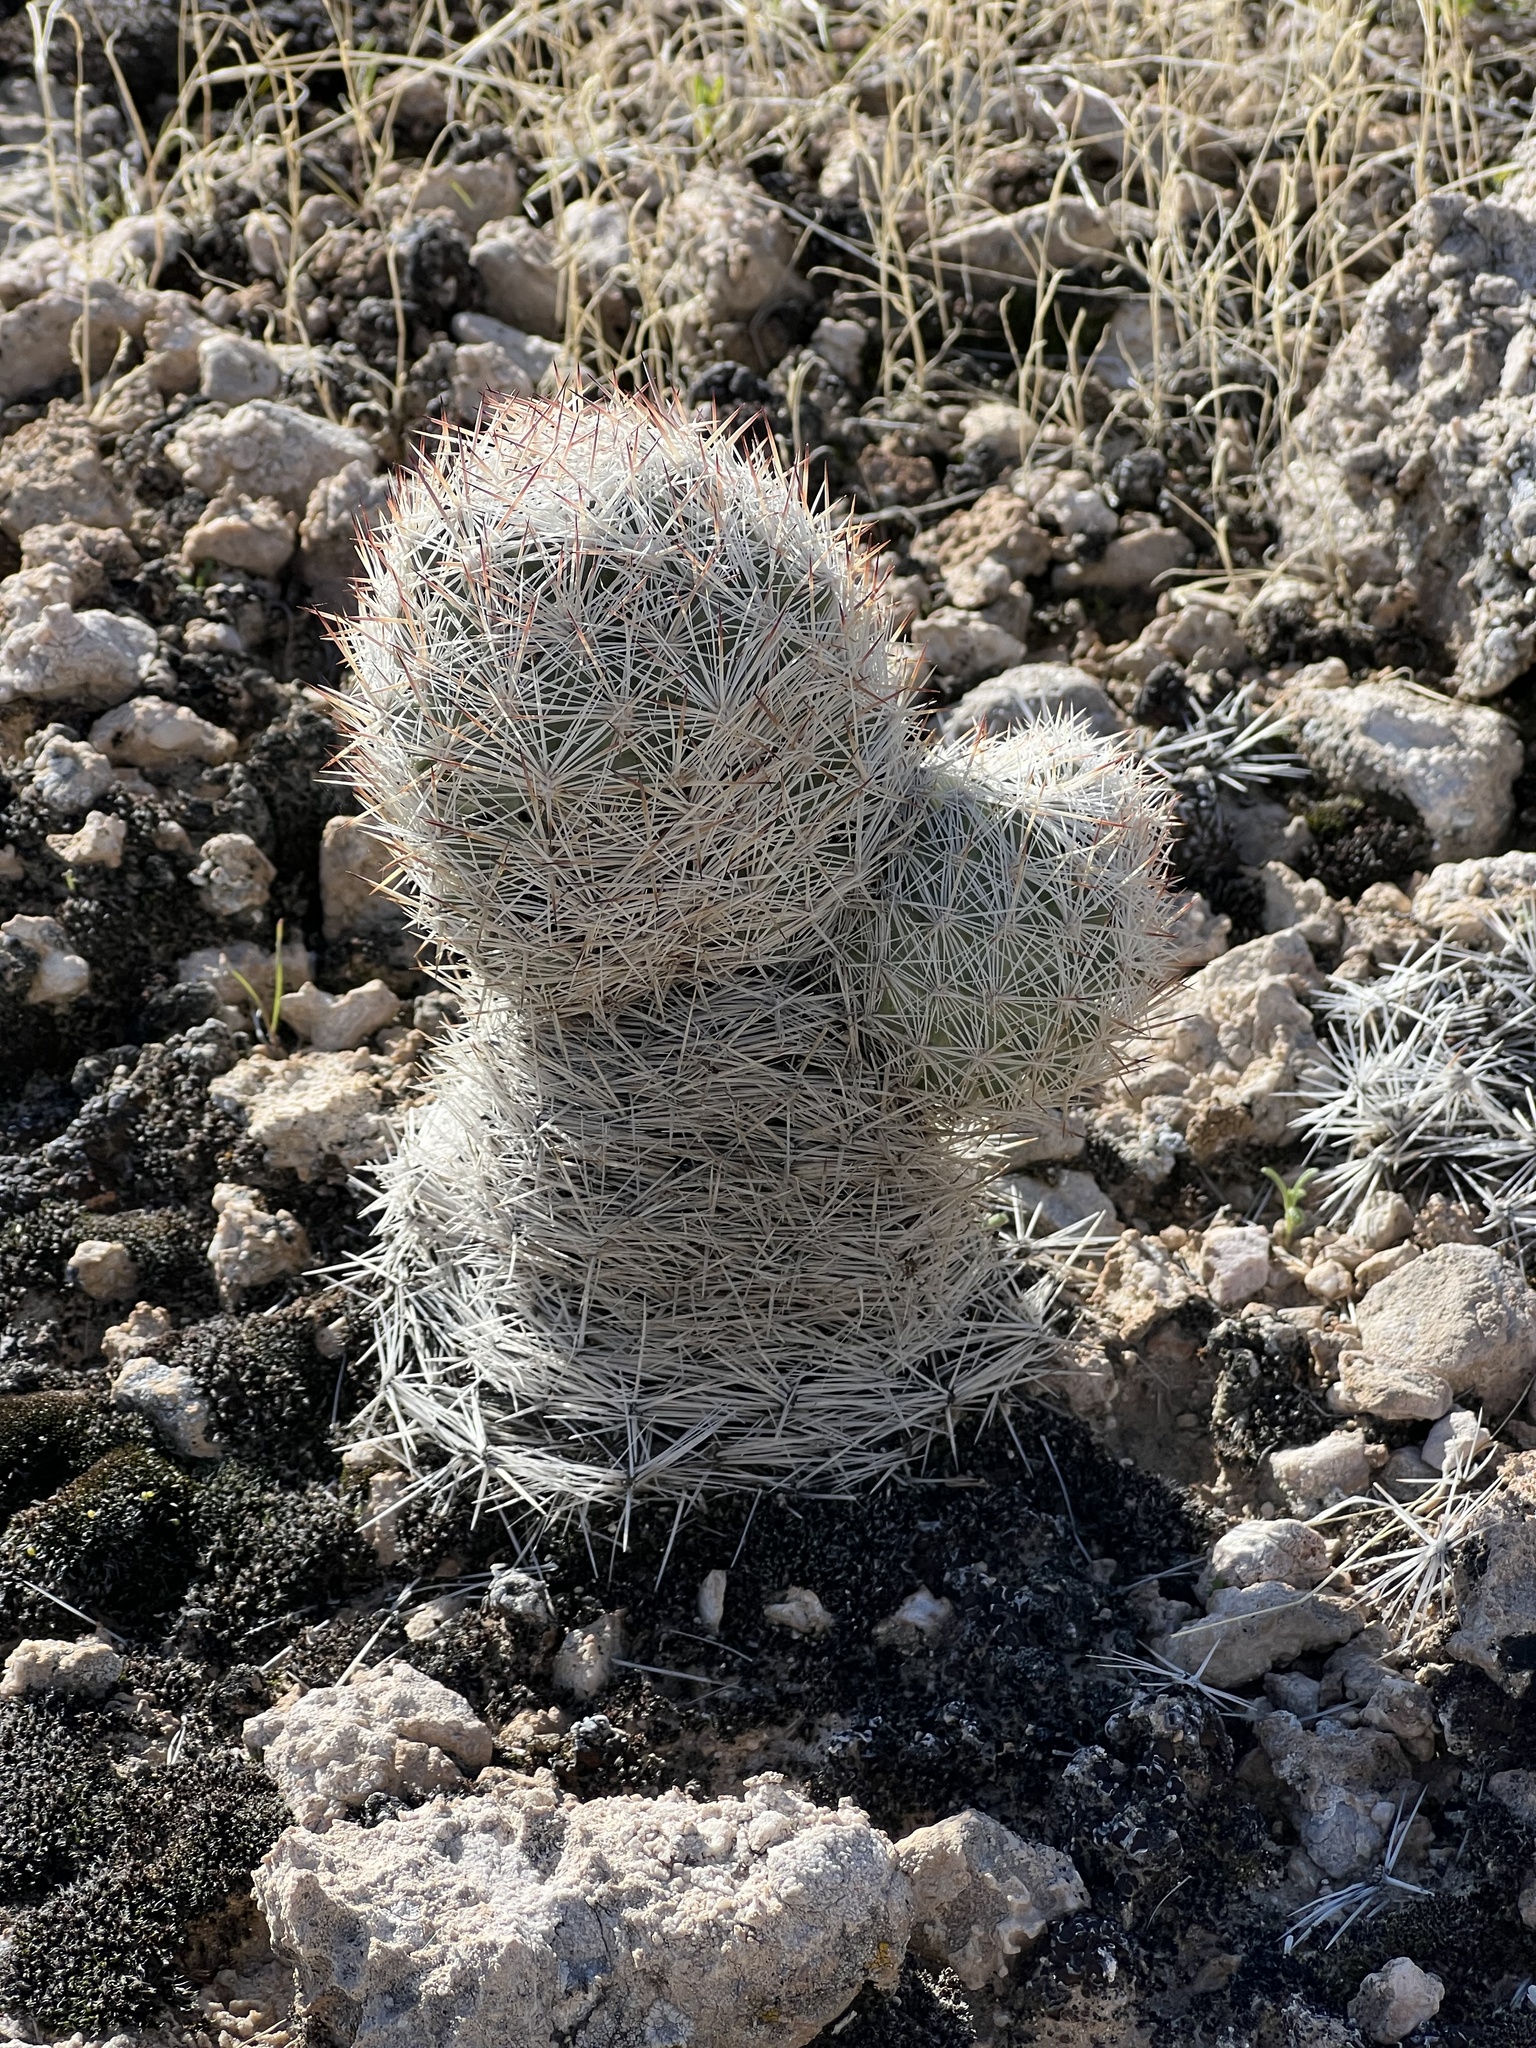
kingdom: Plantae
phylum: Tracheophyta
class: Magnoliopsida
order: Caryophyllales
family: Cactaceae
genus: Pelecyphora
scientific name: Pelecyphora dasyacantha
